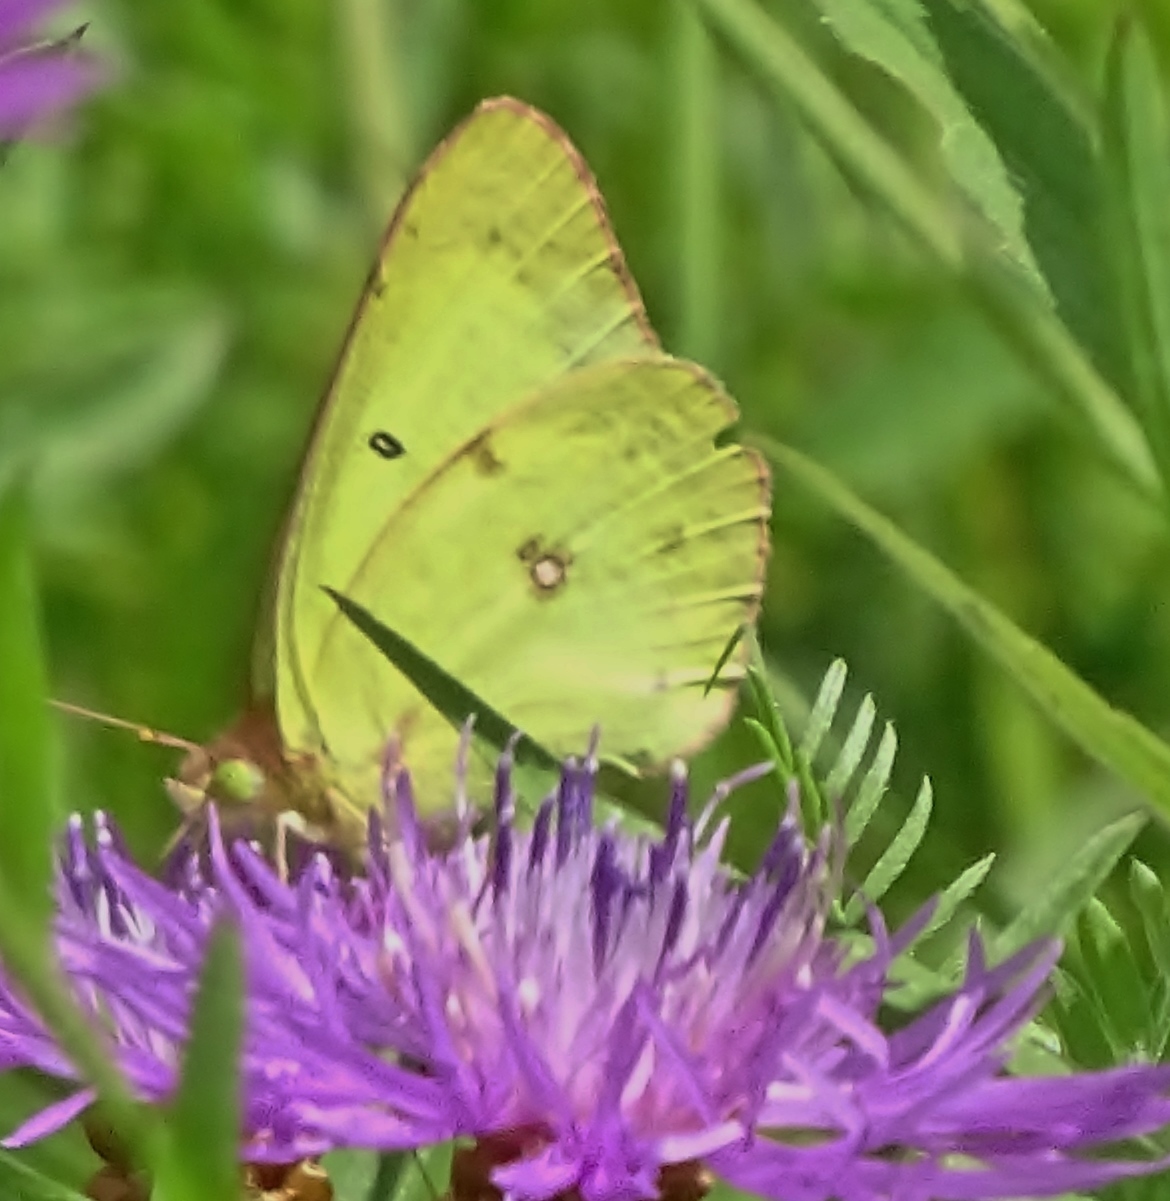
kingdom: Animalia
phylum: Arthropoda
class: Insecta
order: Lepidoptera
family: Pieridae
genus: Colias
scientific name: Colias philodice
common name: Clouded sulphur
